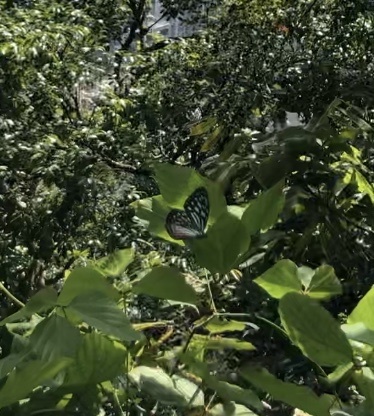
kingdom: Animalia
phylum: Arthropoda
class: Insecta
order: Lepidoptera
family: Nymphalidae
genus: Ideopsis
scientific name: Ideopsis similis
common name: Ceylon blue glassy tiger
